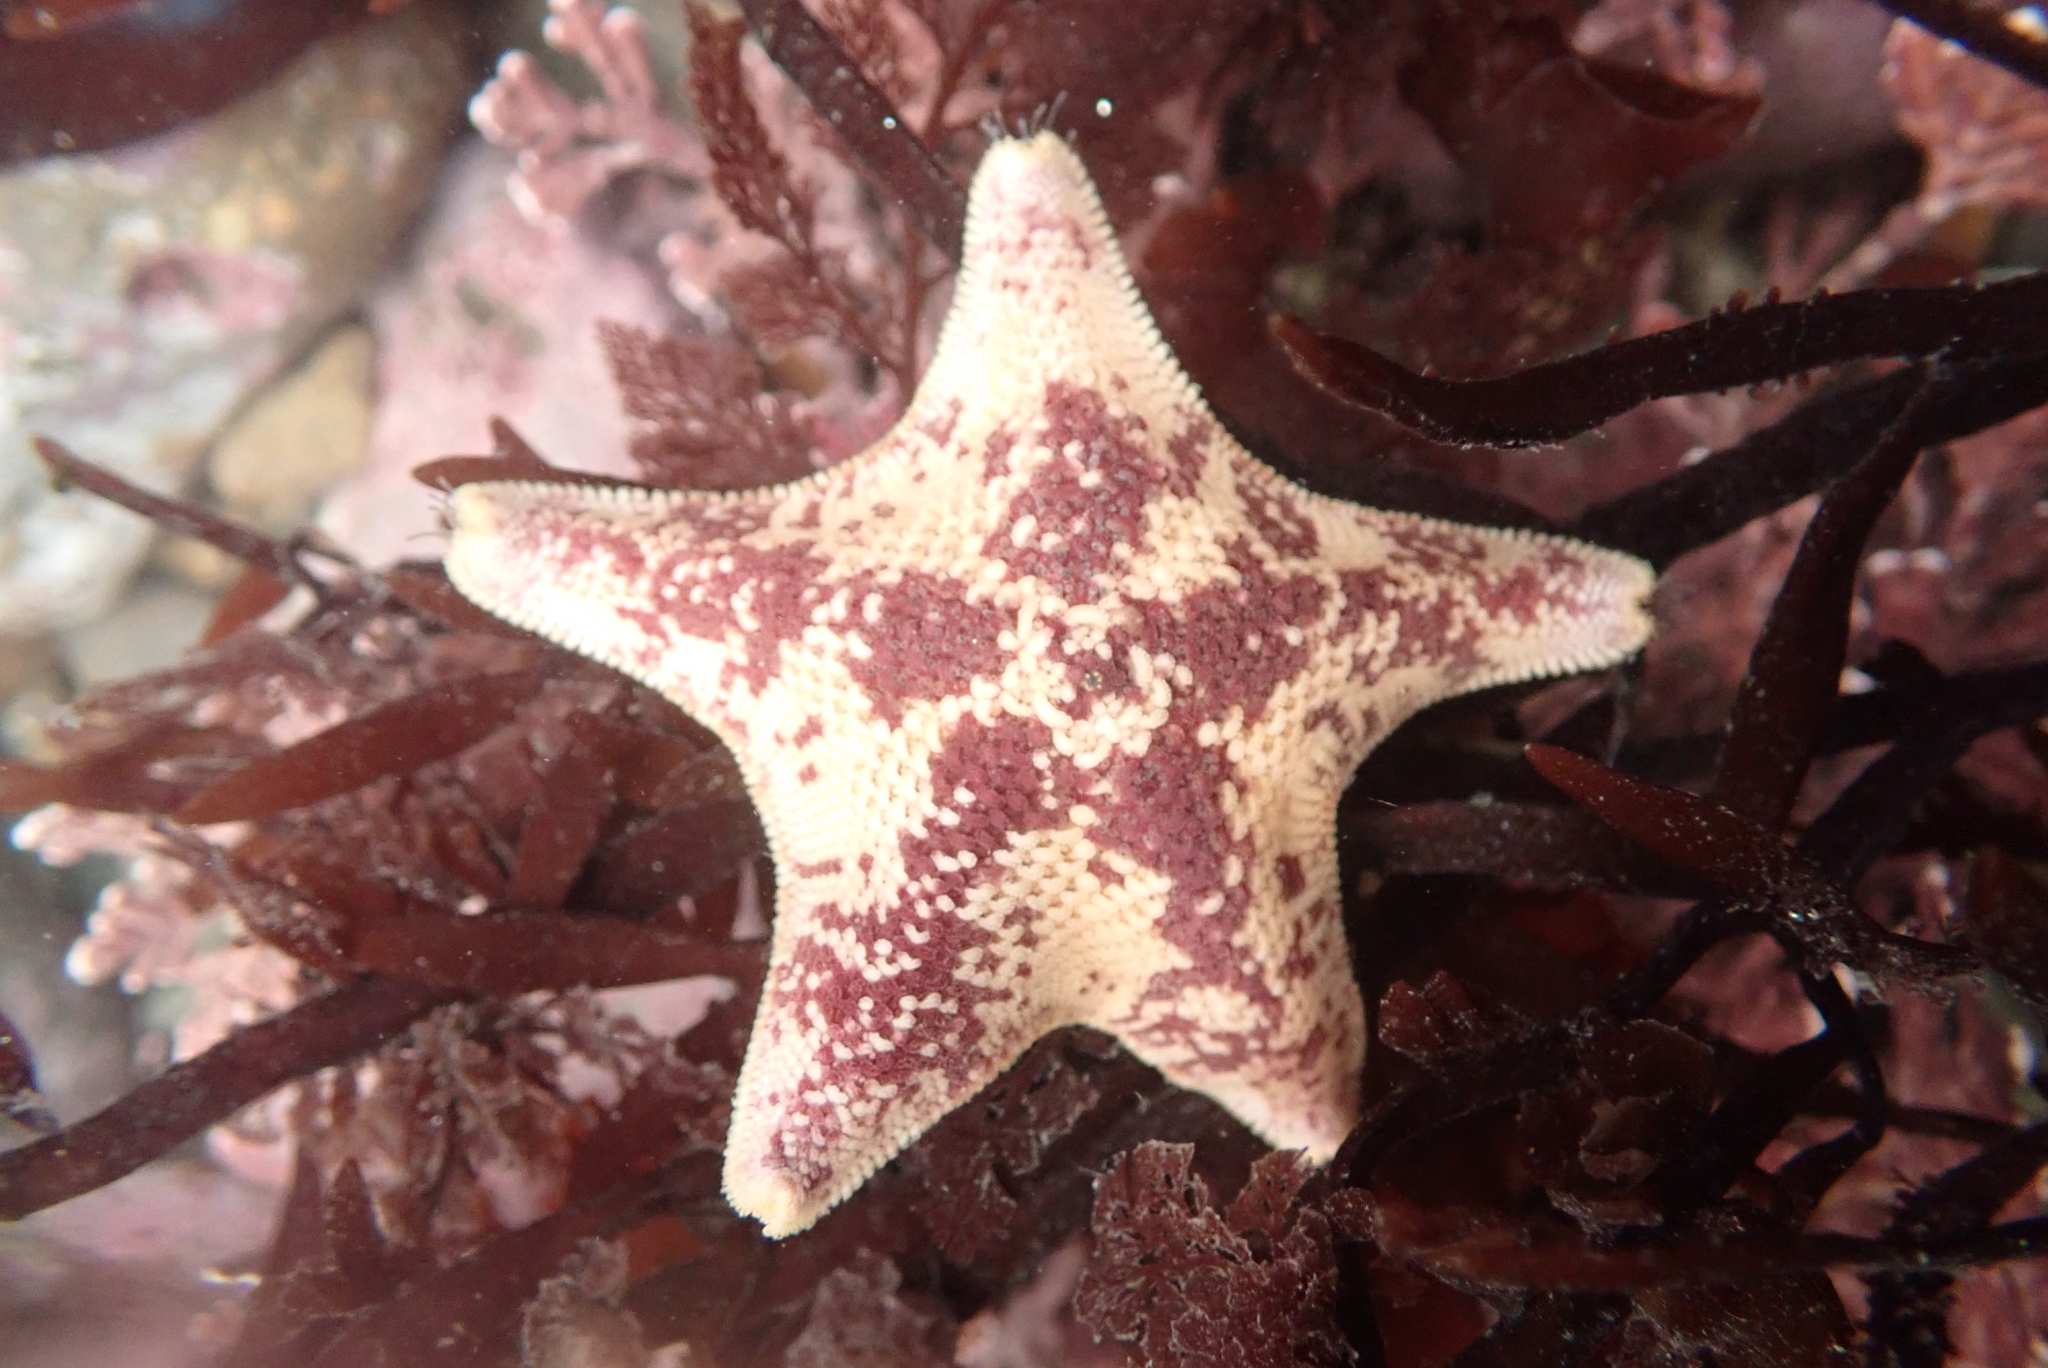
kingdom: Animalia
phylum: Echinodermata
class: Asteroidea
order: Valvatida
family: Asterinidae
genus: Patiria
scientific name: Patiria miniata
